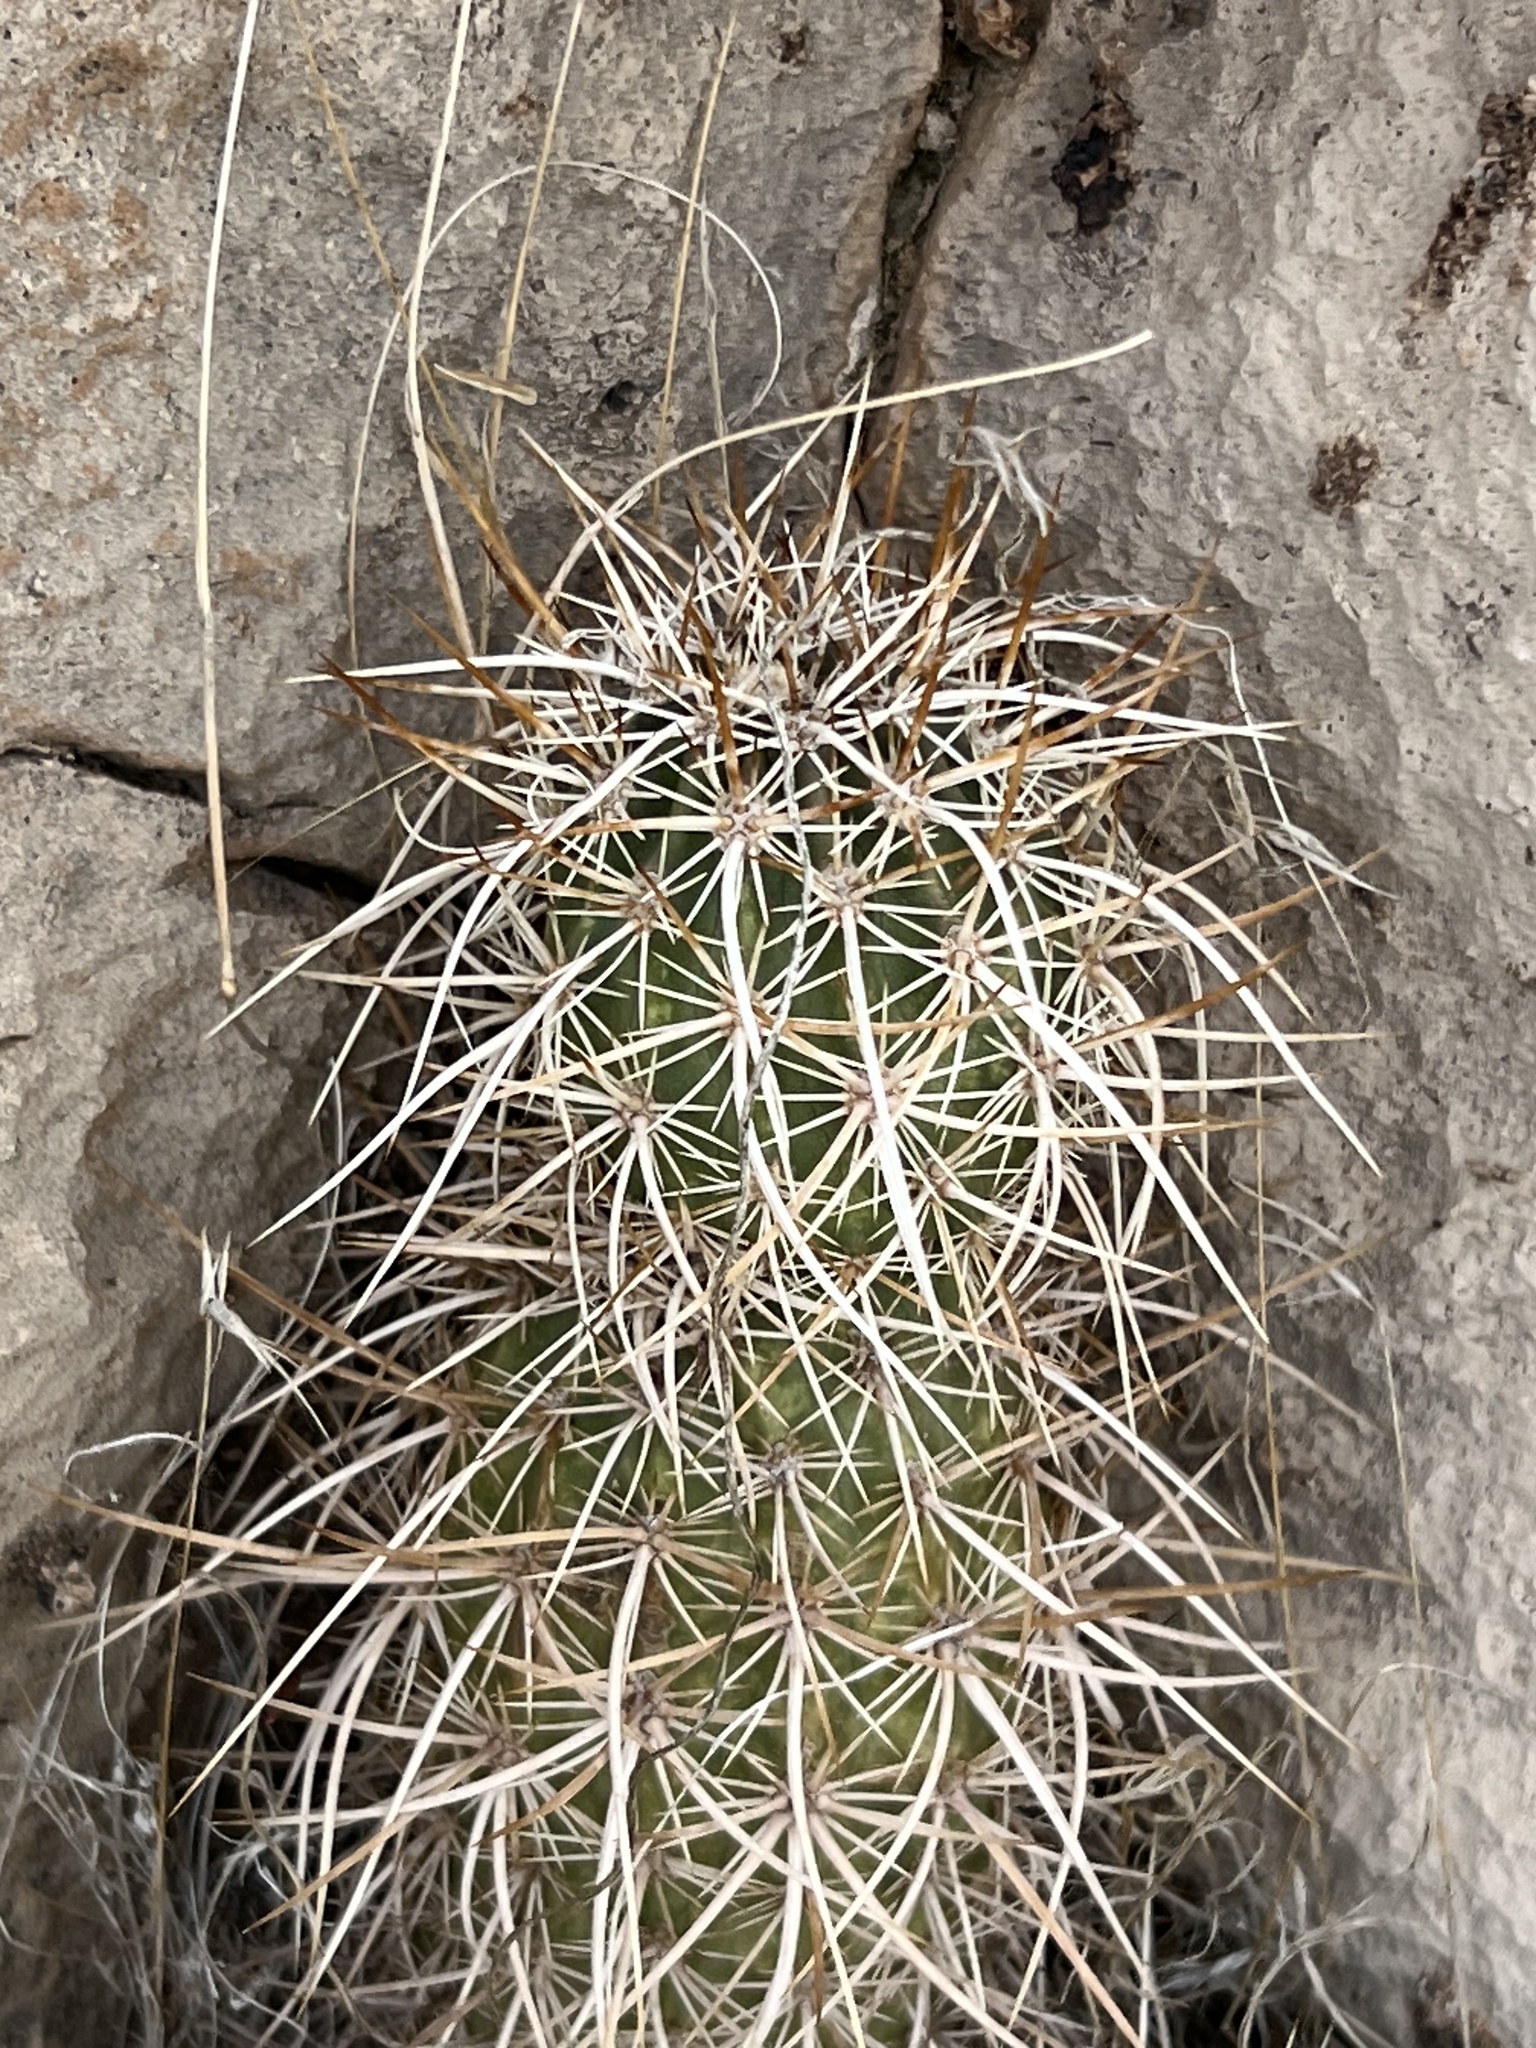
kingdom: Plantae
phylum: Tracheophyta
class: Magnoliopsida
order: Caryophyllales
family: Cactaceae
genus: Echinocereus
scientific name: Echinocereus engelmannii
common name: Engelmann's hedgehog cactus
